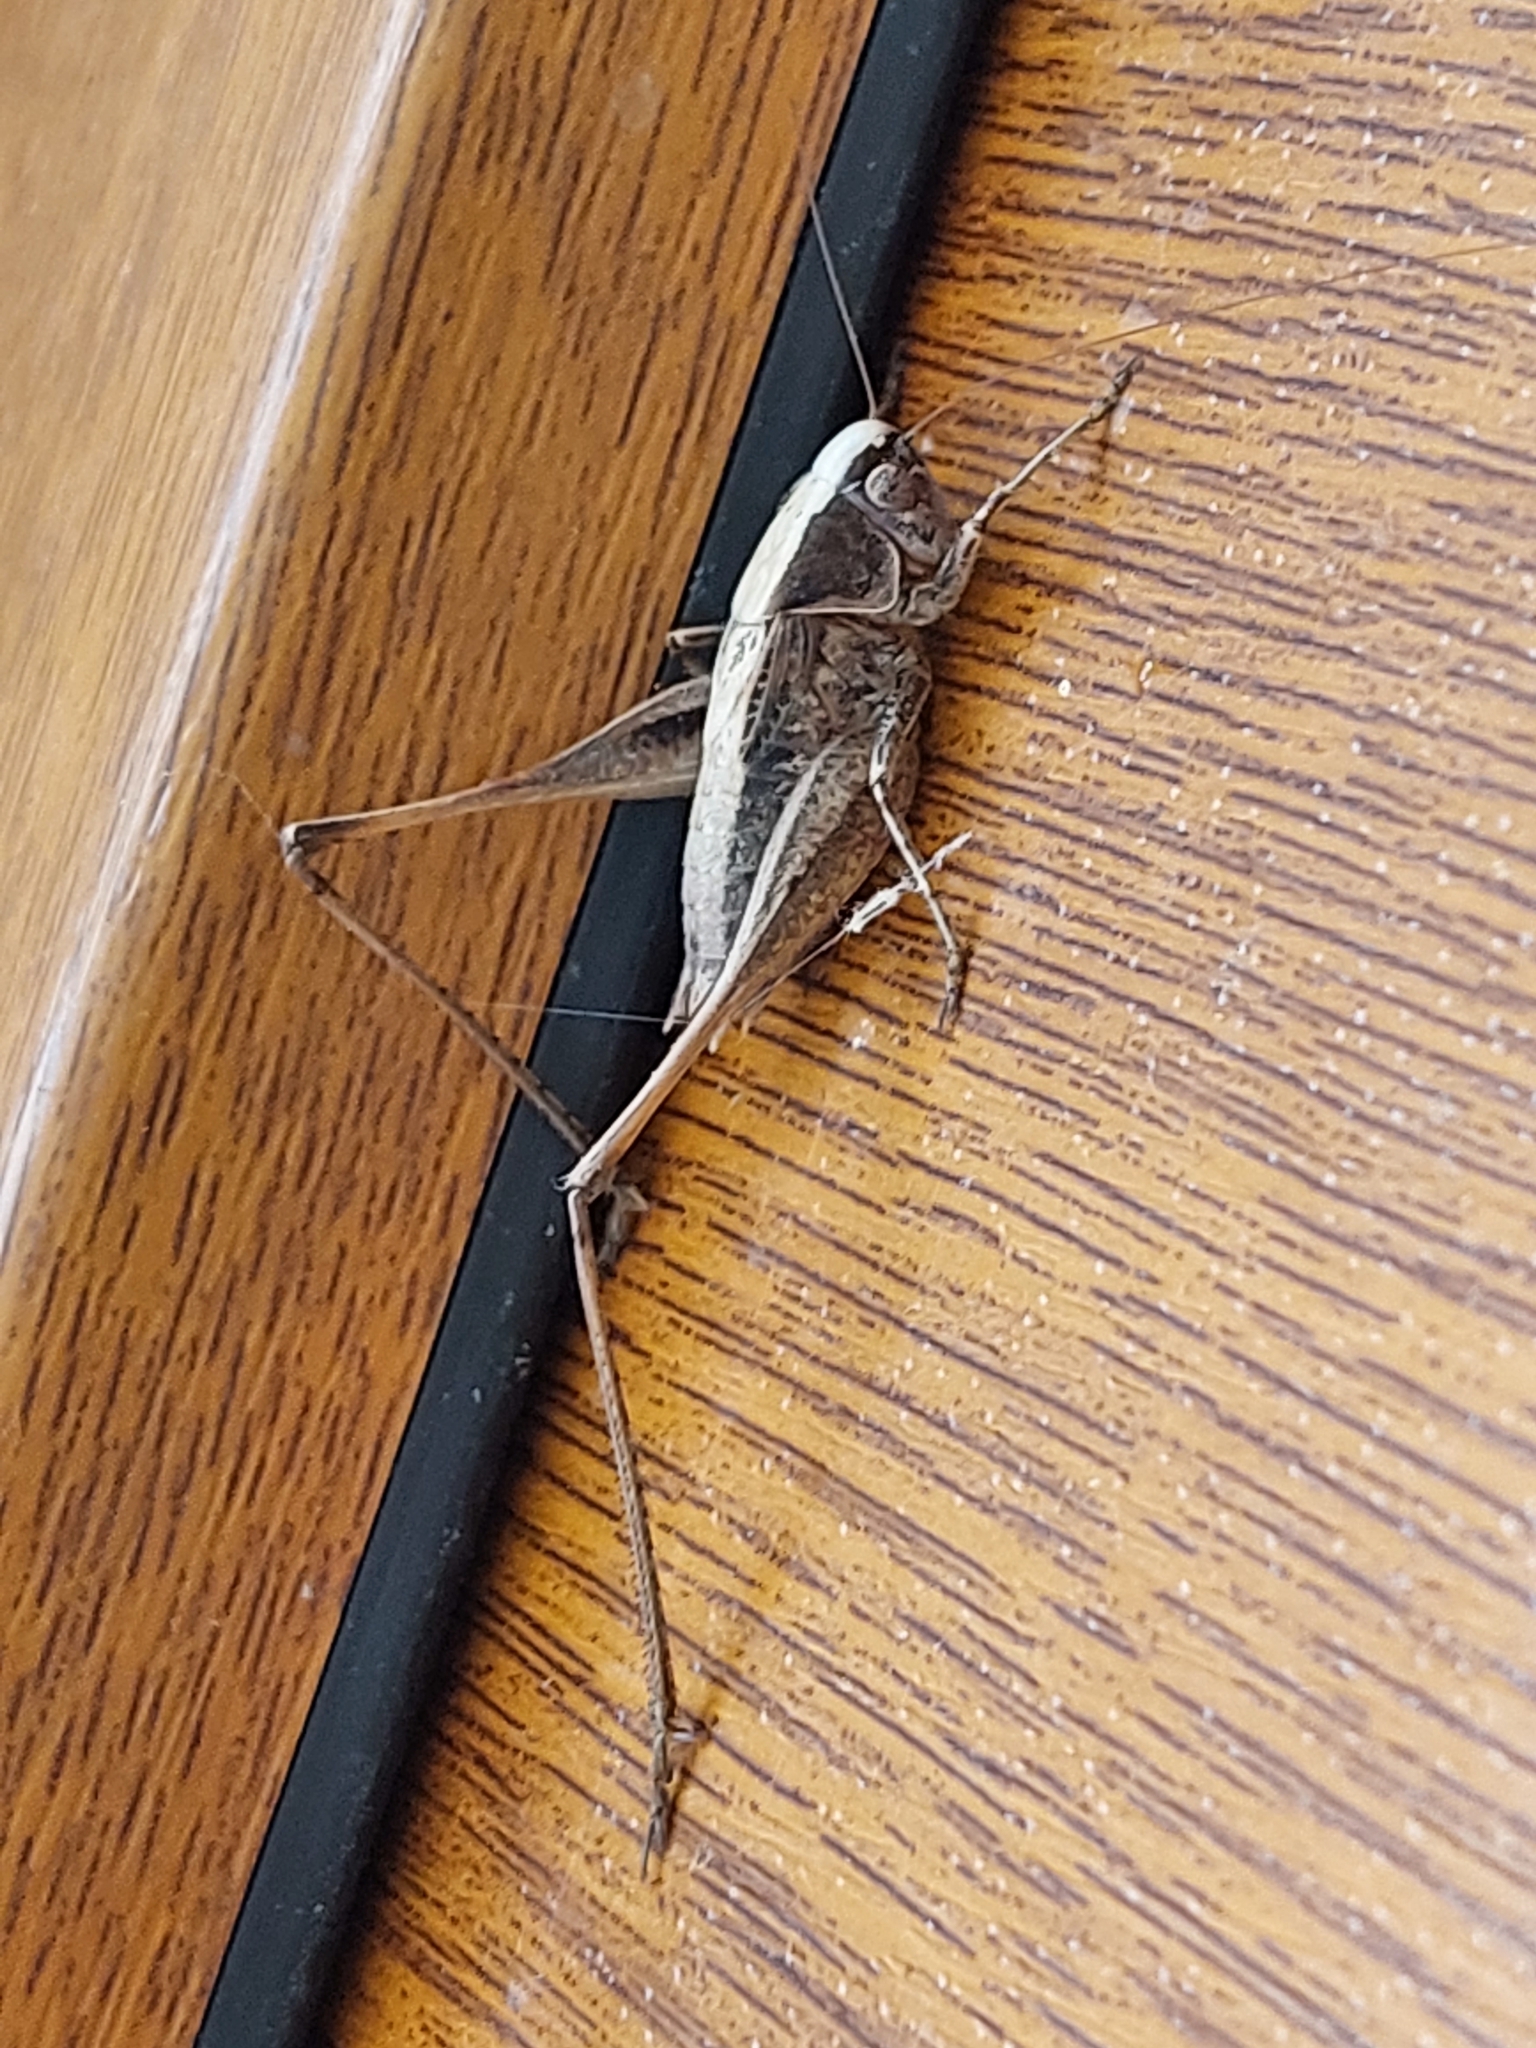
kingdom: Animalia
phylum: Arthropoda
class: Insecta
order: Orthoptera
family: Tettigoniidae
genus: Incertana
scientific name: Incertana incerta
